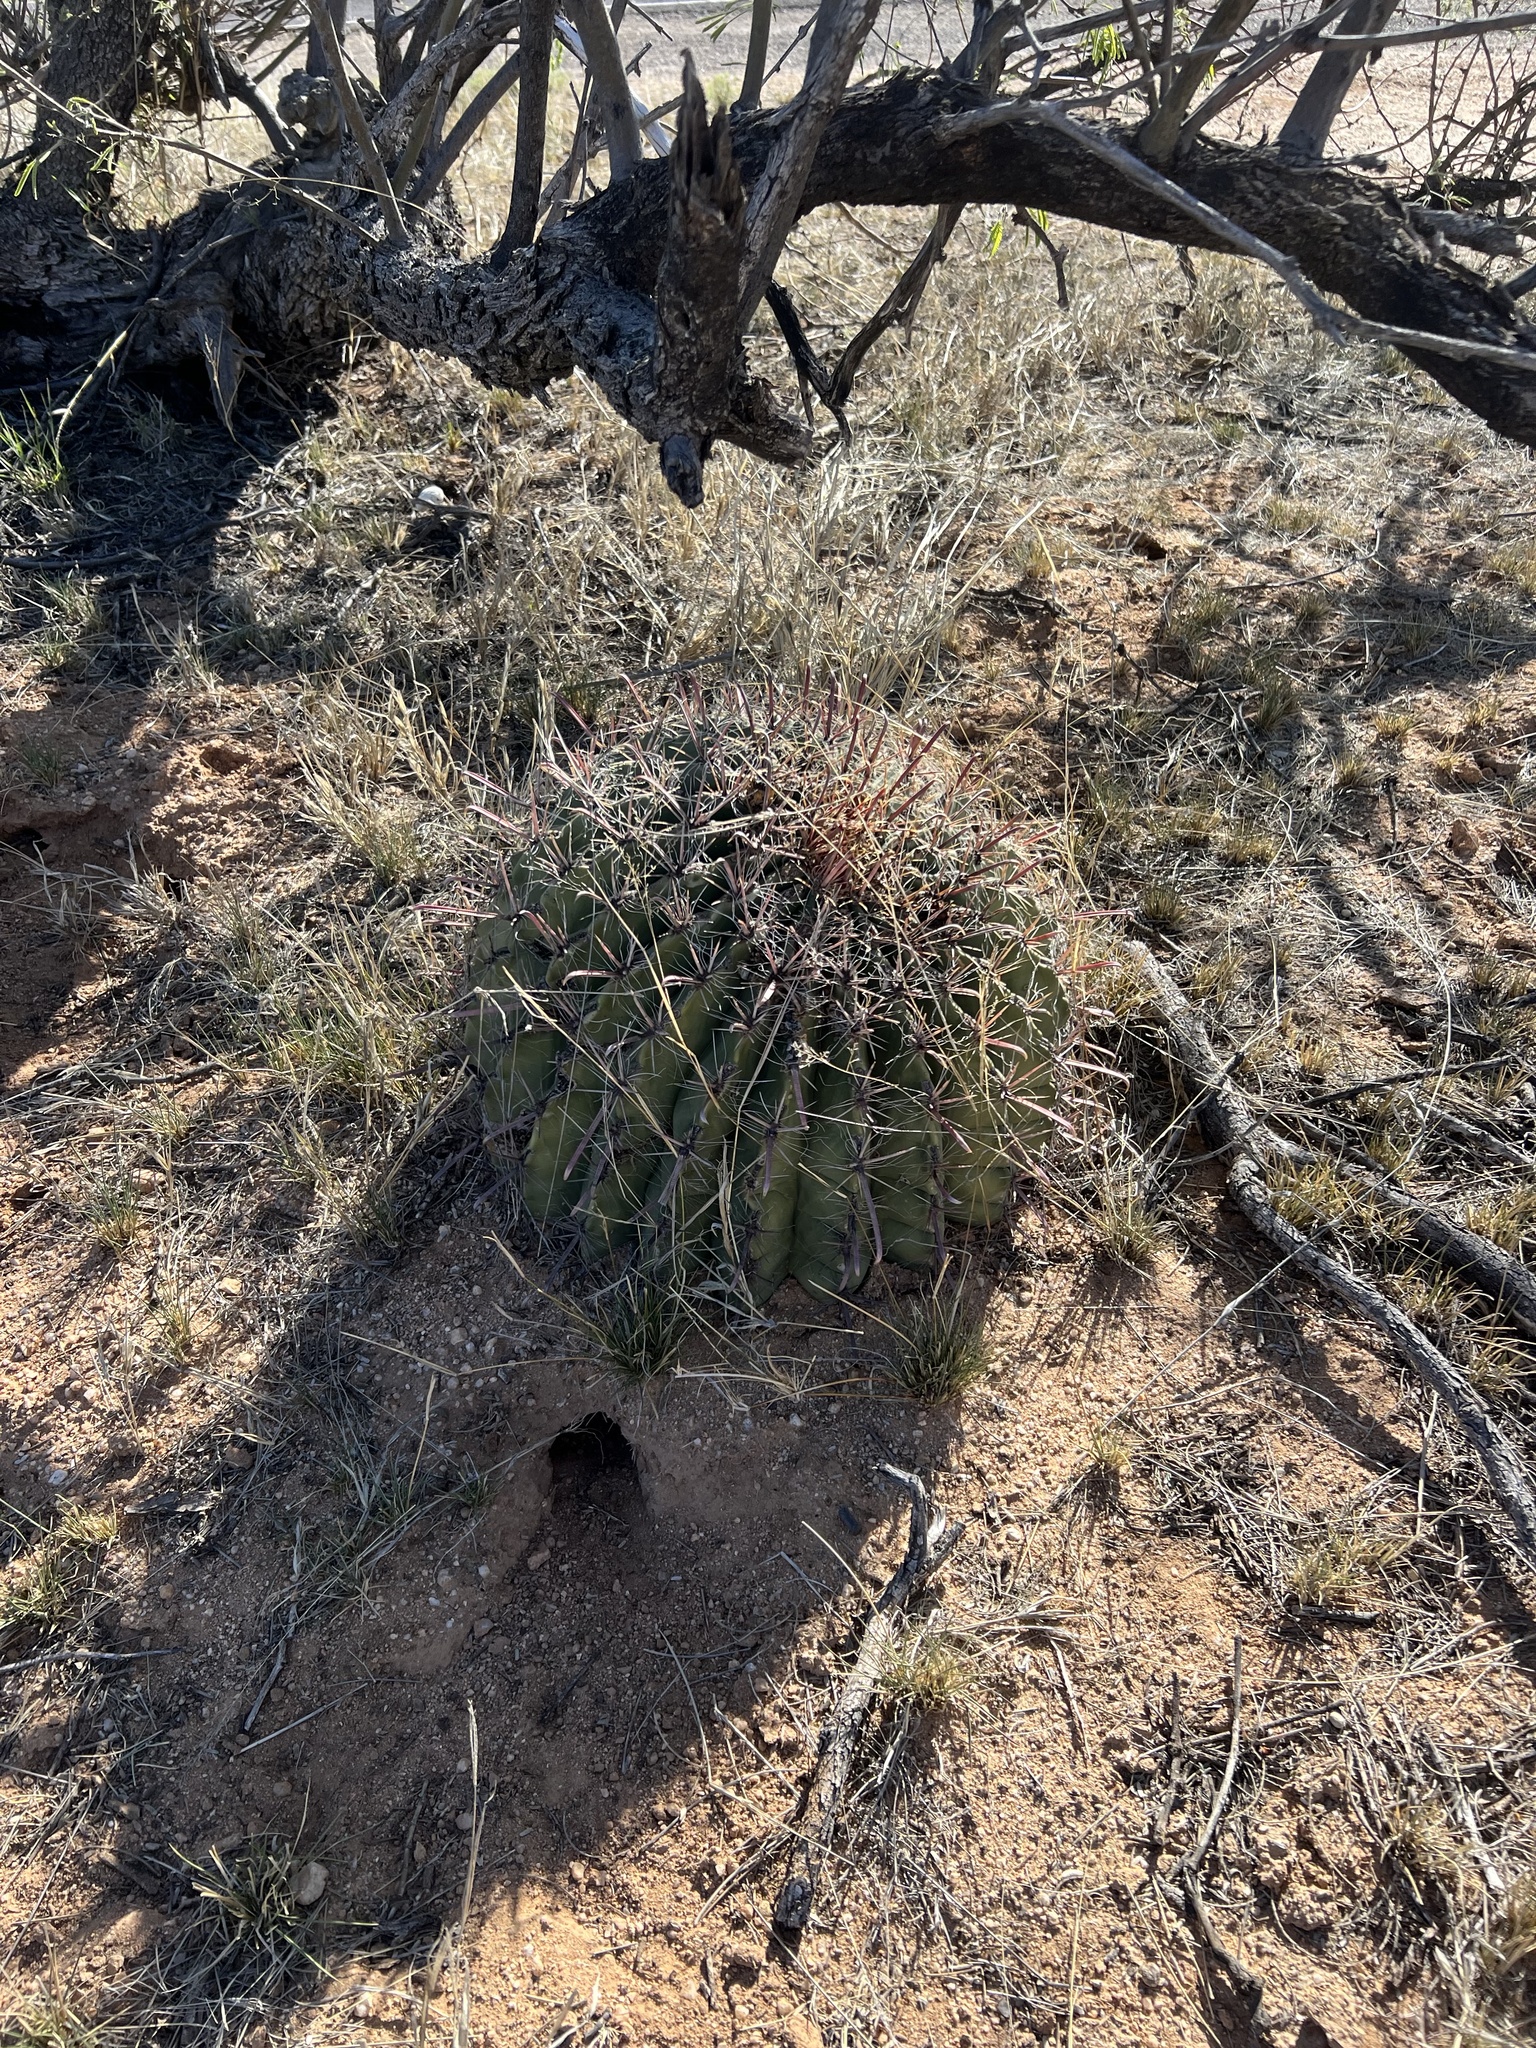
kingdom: Plantae
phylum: Tracheophyta
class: Magnoliopsida
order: Caryophyllales
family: Cactaceae
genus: Ferocactus
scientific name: Ferocactus wislizeni
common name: Candy barrel cactus
